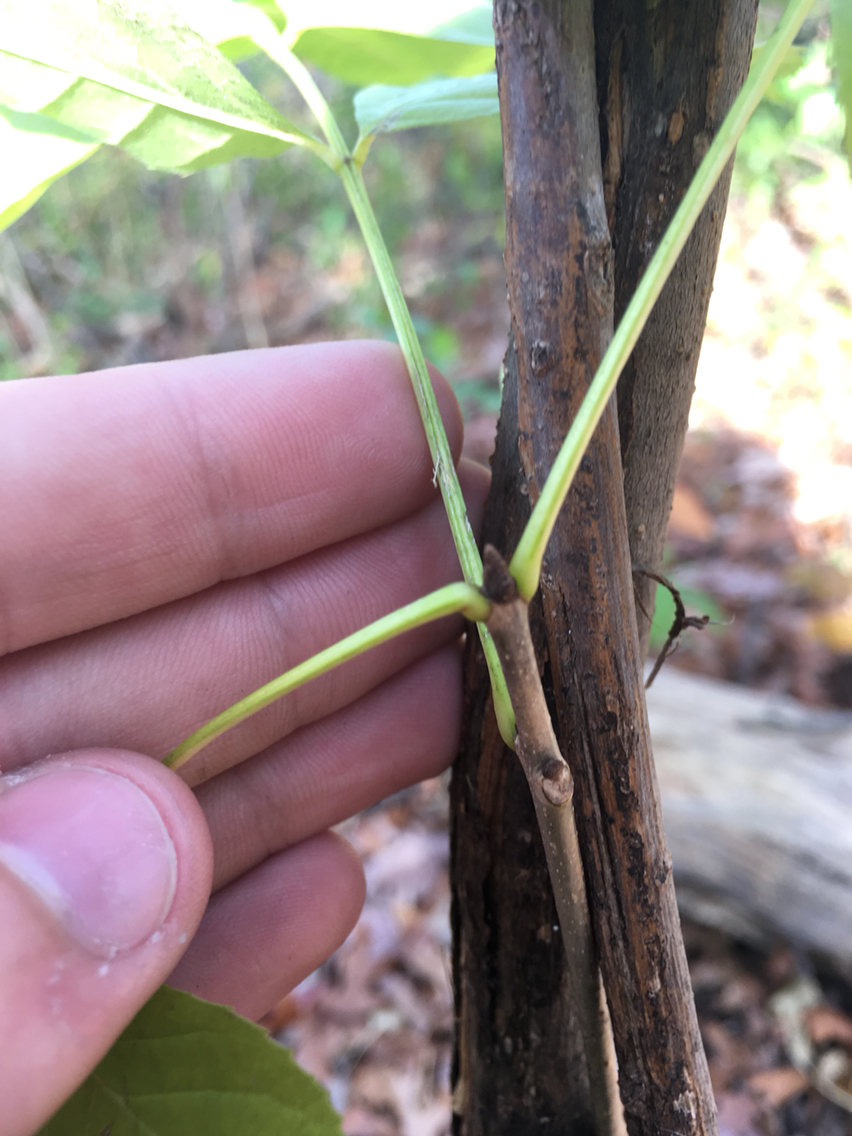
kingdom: Plantae
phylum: Tracheophyta
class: Magnoliopsida
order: Lamiales
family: Oleaceae
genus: Fraxinus
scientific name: Fraxinus pennsylvanica
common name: Green ash
